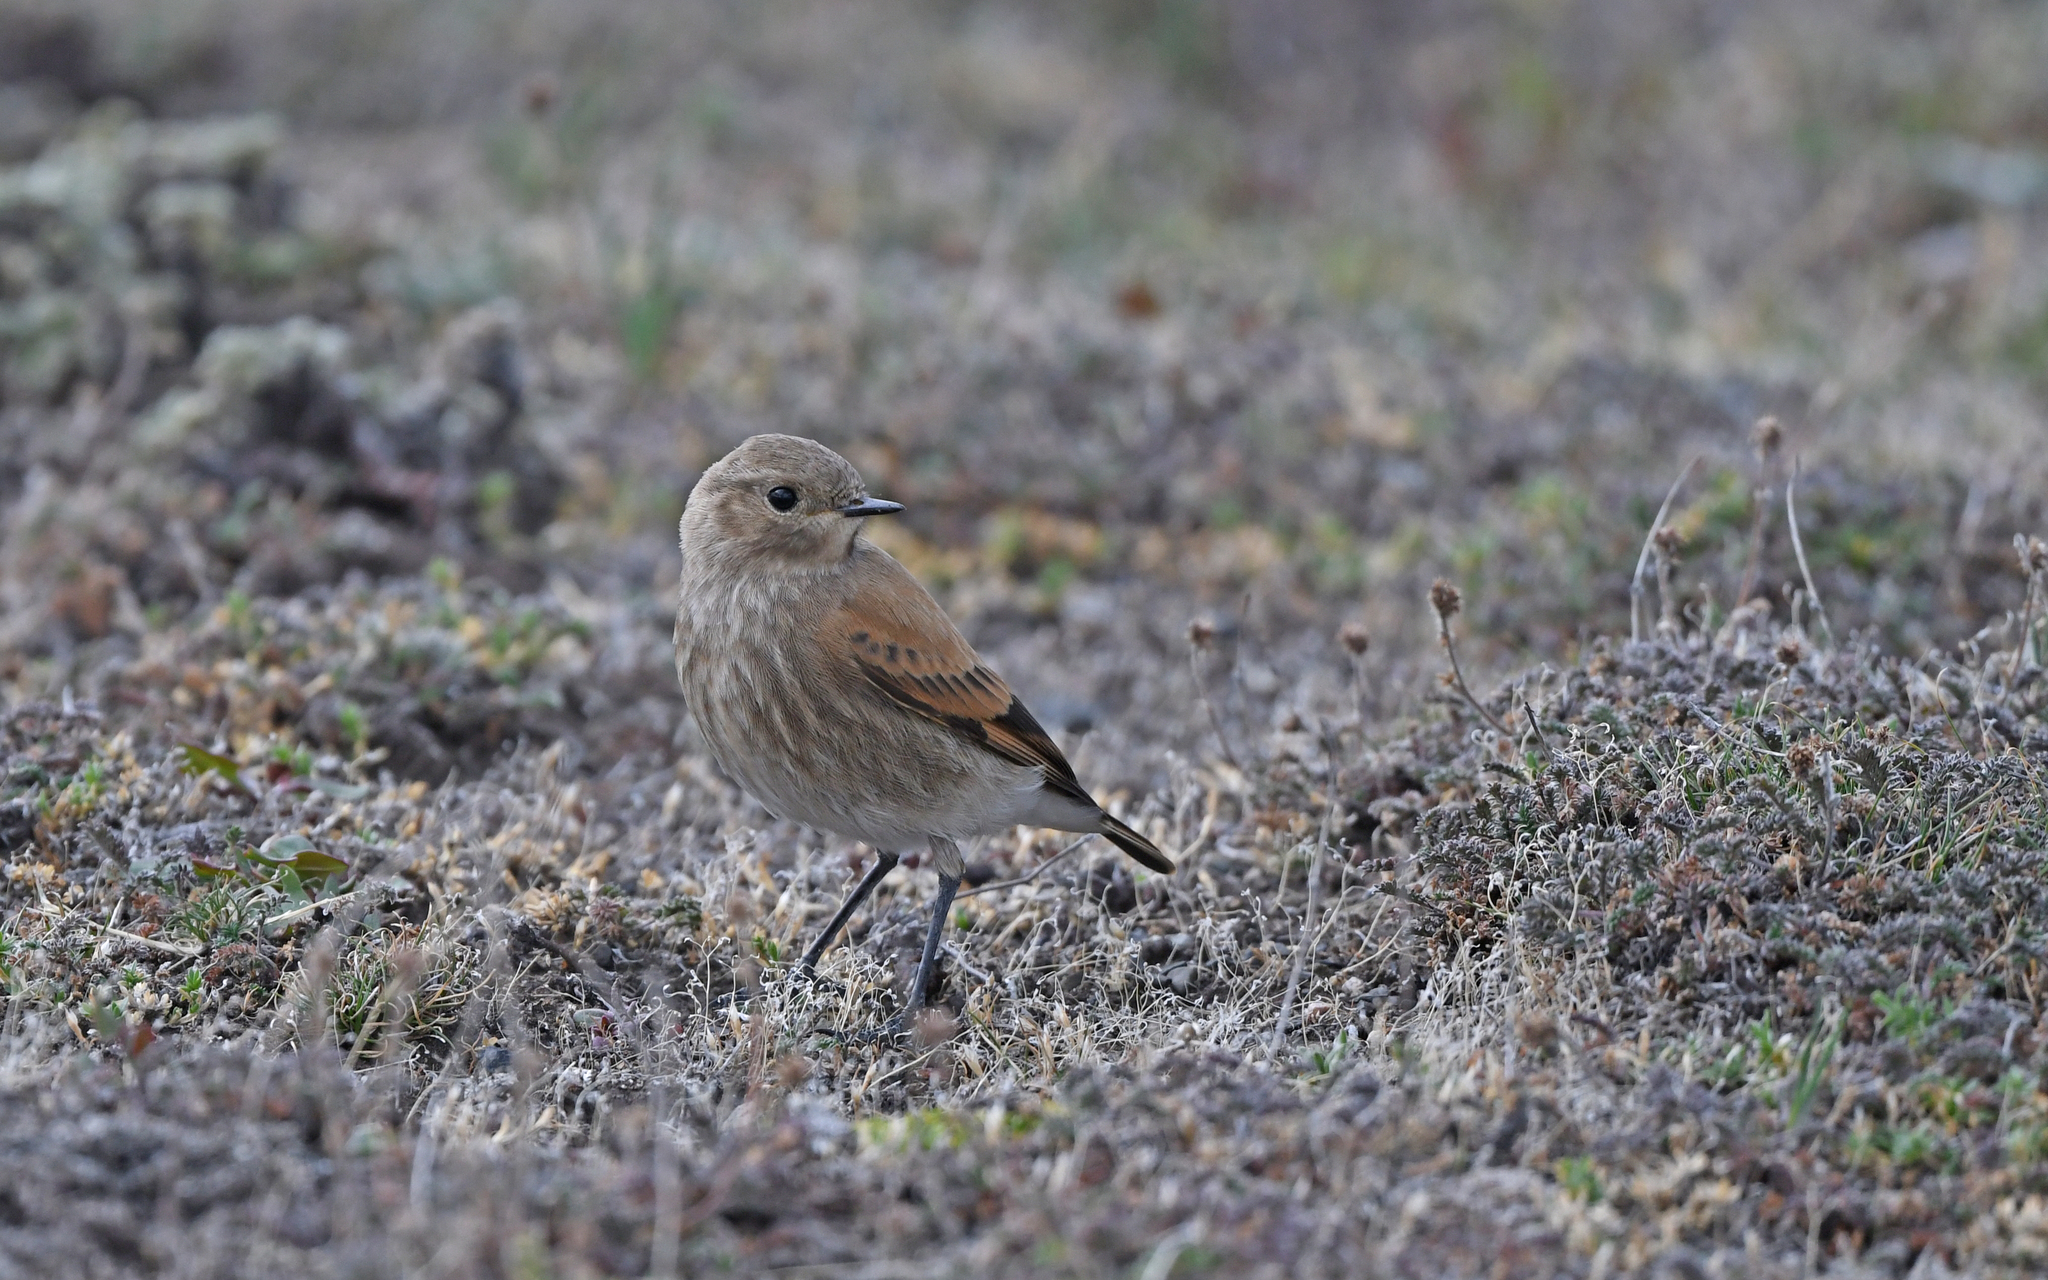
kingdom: Animalia
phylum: Chordata
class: Aves
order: Passeriformes
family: Tyrannidae
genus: Lessonia
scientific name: Lessonia rufa
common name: Austral negrito
